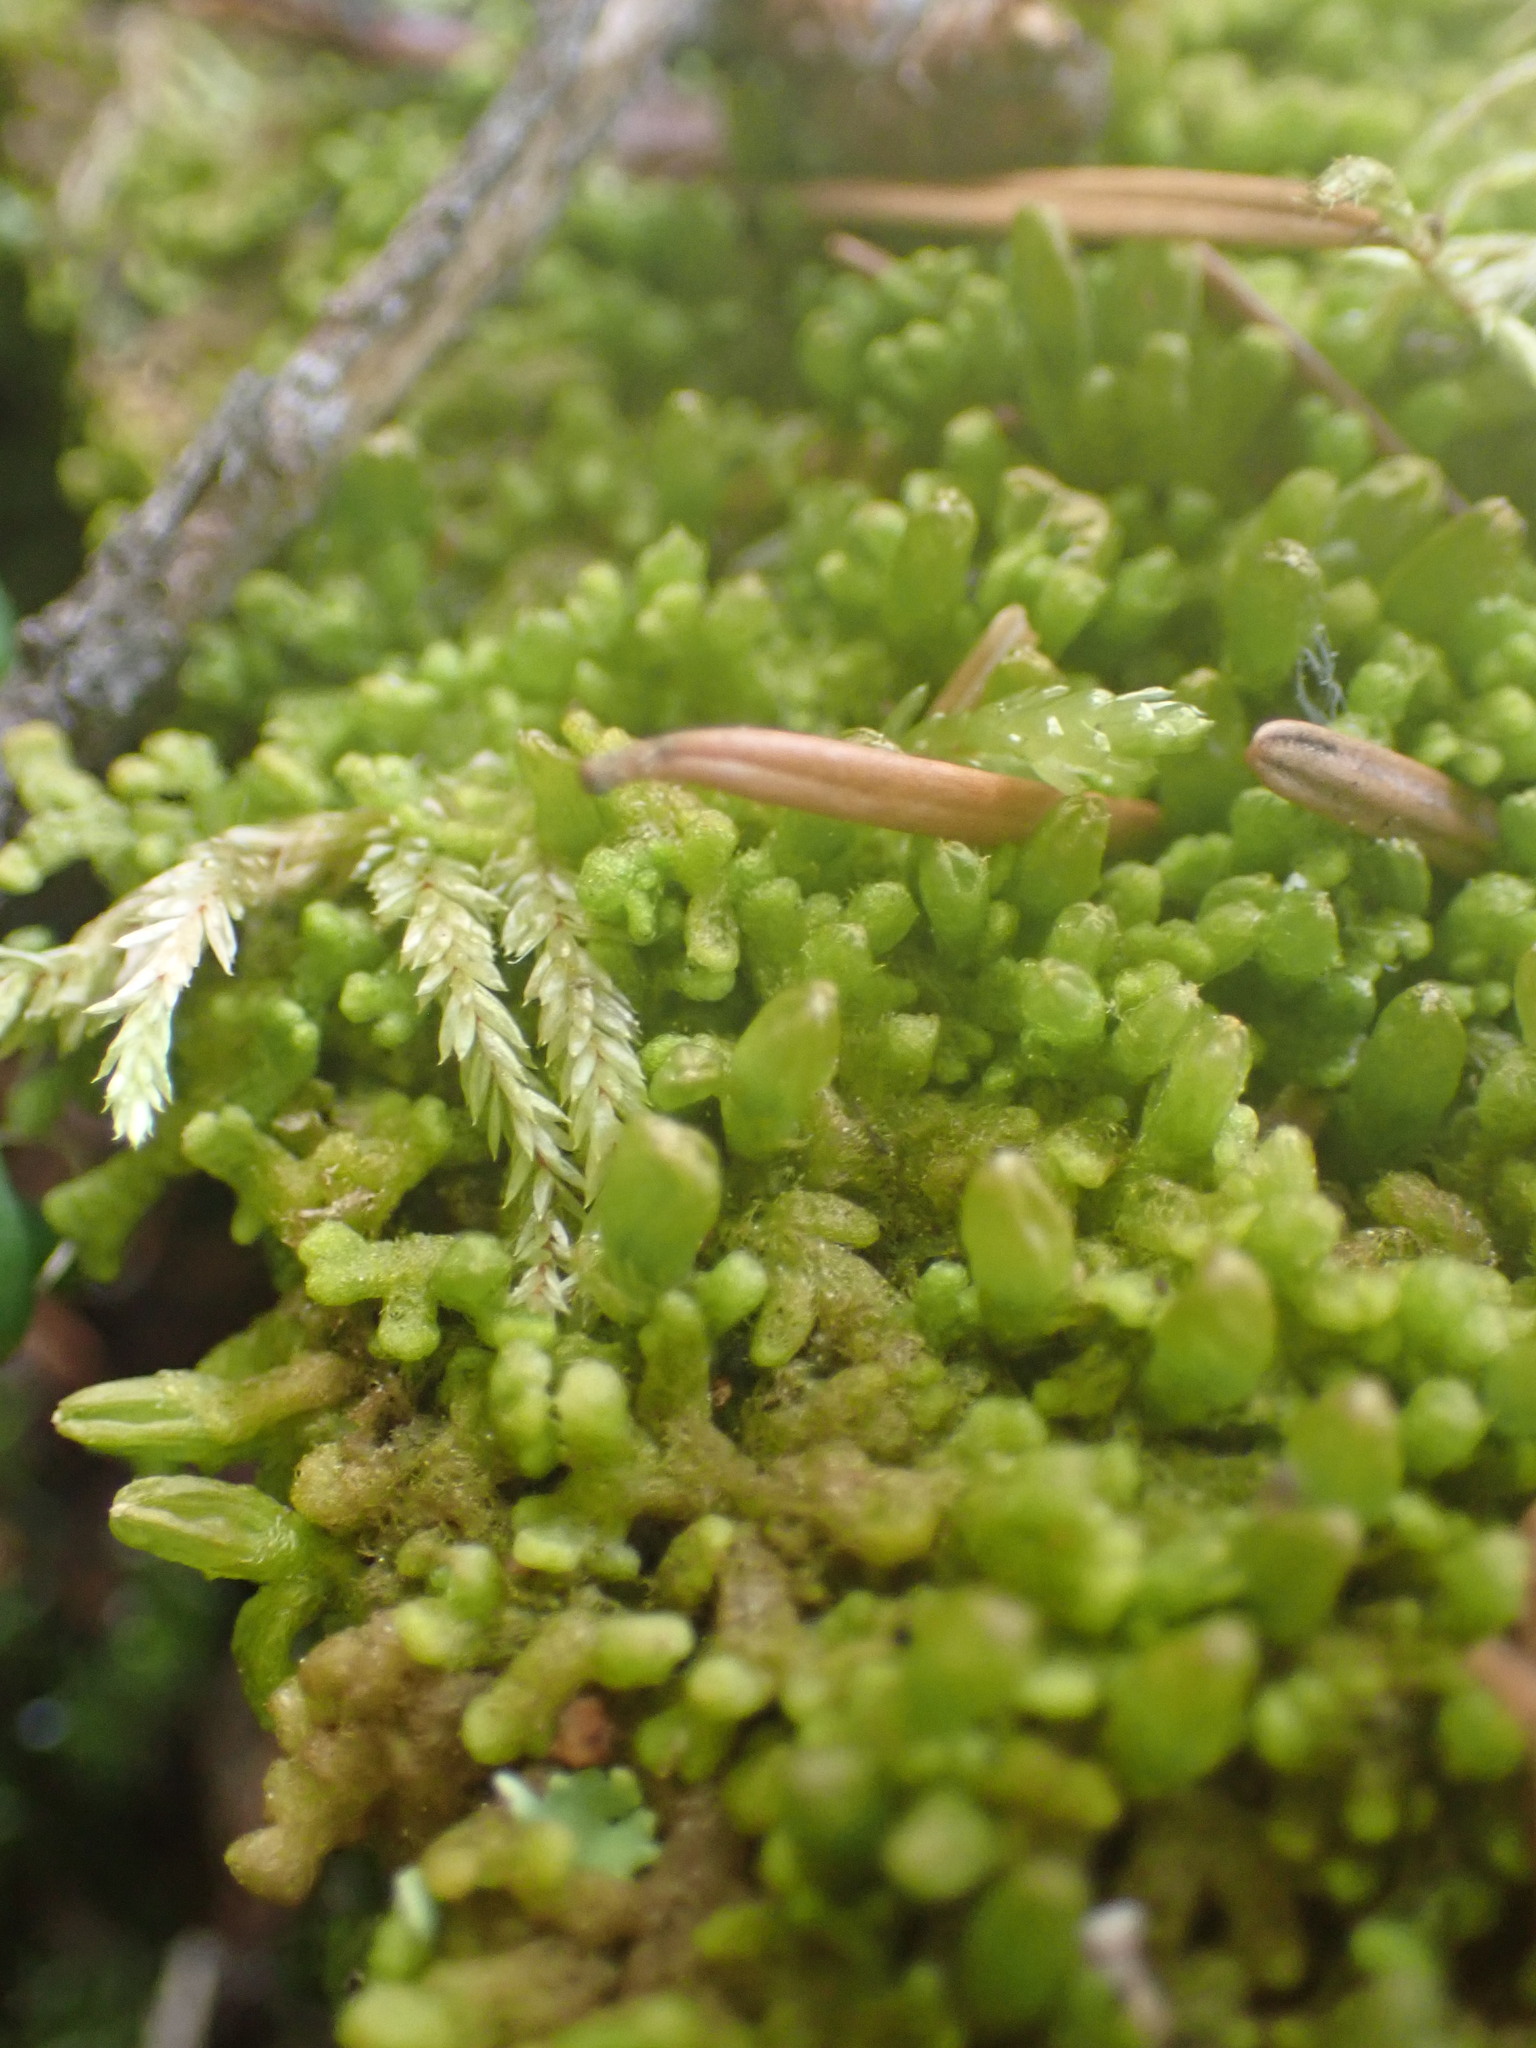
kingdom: Plantae
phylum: Marchantiophyta
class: Jungermanniopsida
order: Ptilidiales
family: Ptilidiaceae
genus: Ptilidium
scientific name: Ptilidium pulcherrimum
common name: Tree fringewort
